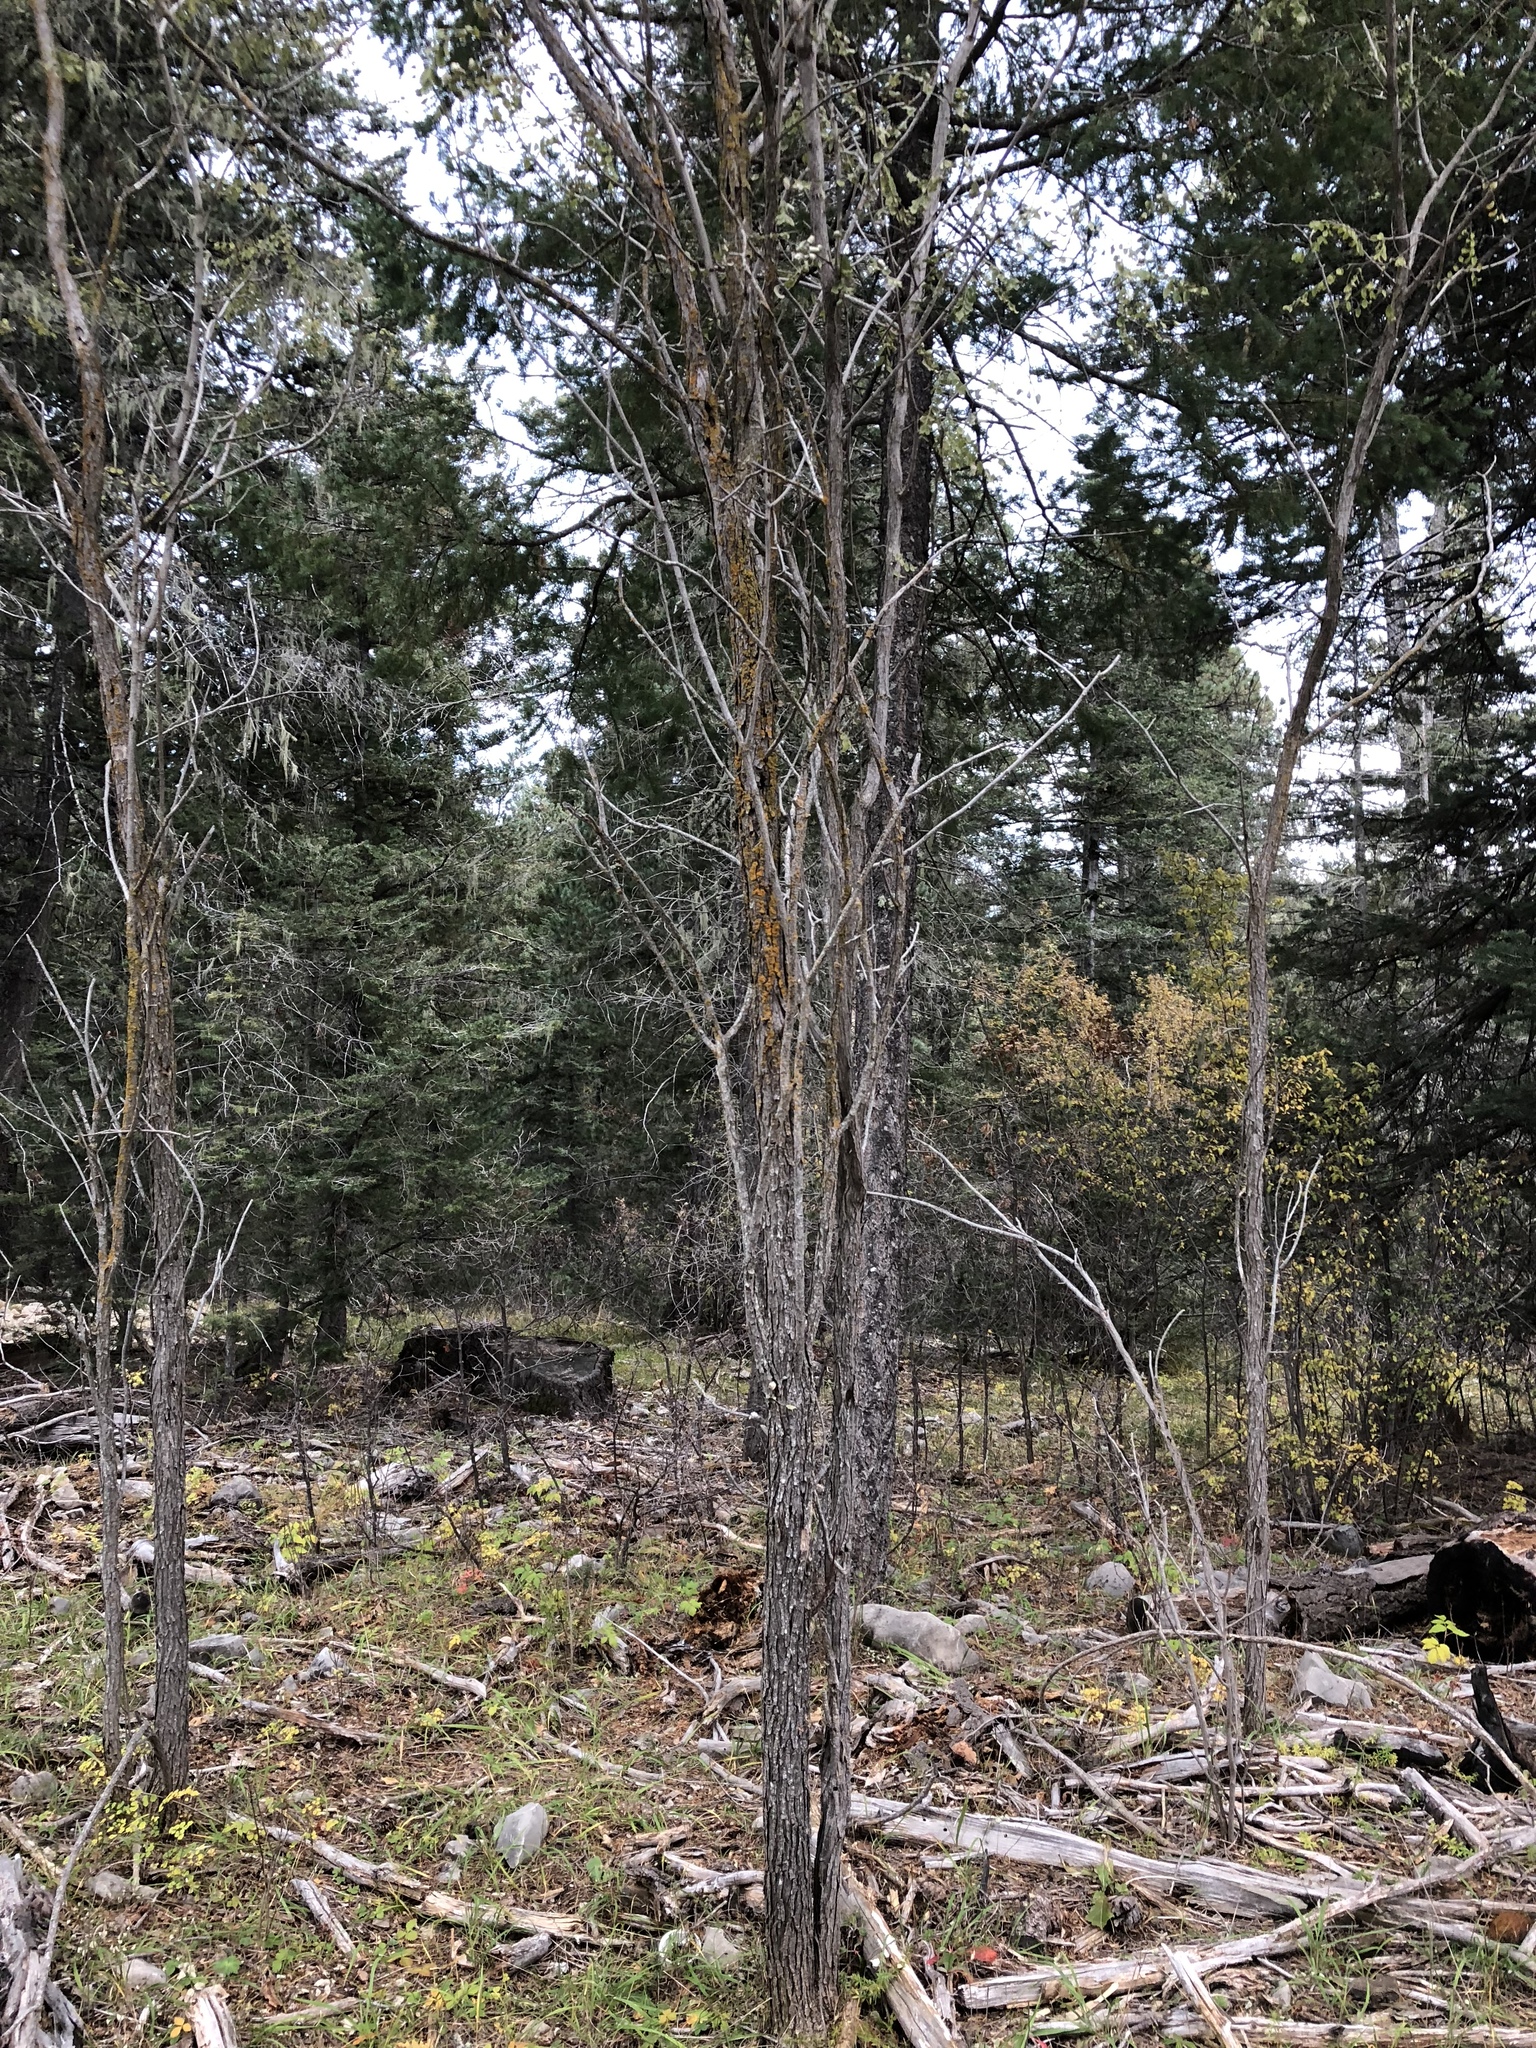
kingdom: Plantae
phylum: Tracheophyta
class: Magnoliopsida
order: Fabales
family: Fabaceae
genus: Robinia
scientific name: Robinia neomexicana
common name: New mexico locust
